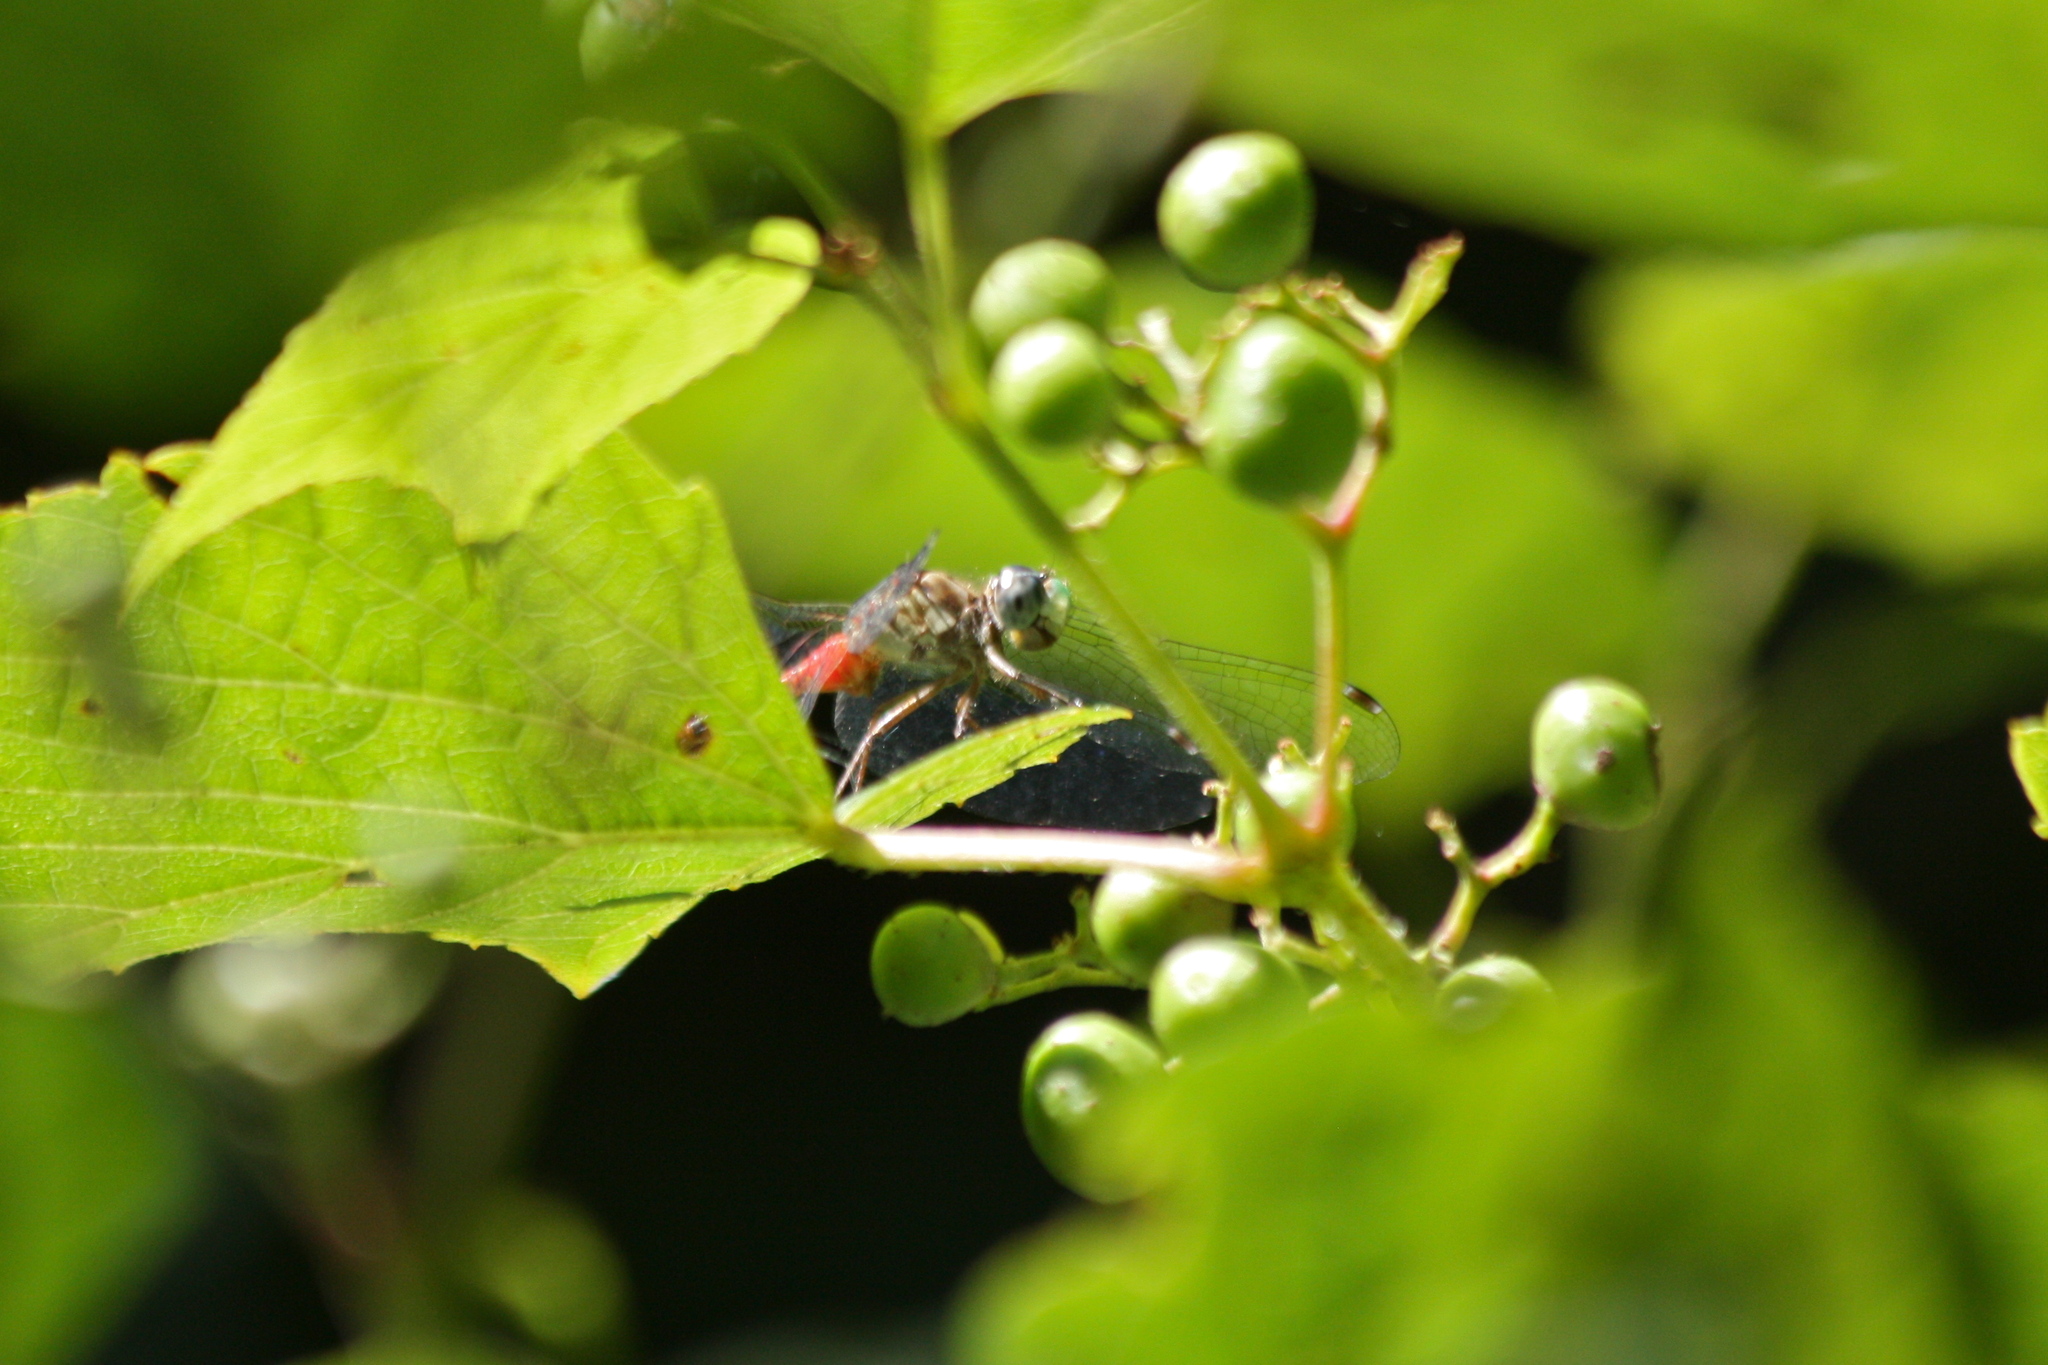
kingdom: Animalia
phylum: Arthropoda
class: Insecta
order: Odonata
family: Libellulidae
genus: Sympetrum
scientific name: Sympetrum ambiguum
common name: Blue-faced meadowhawk
